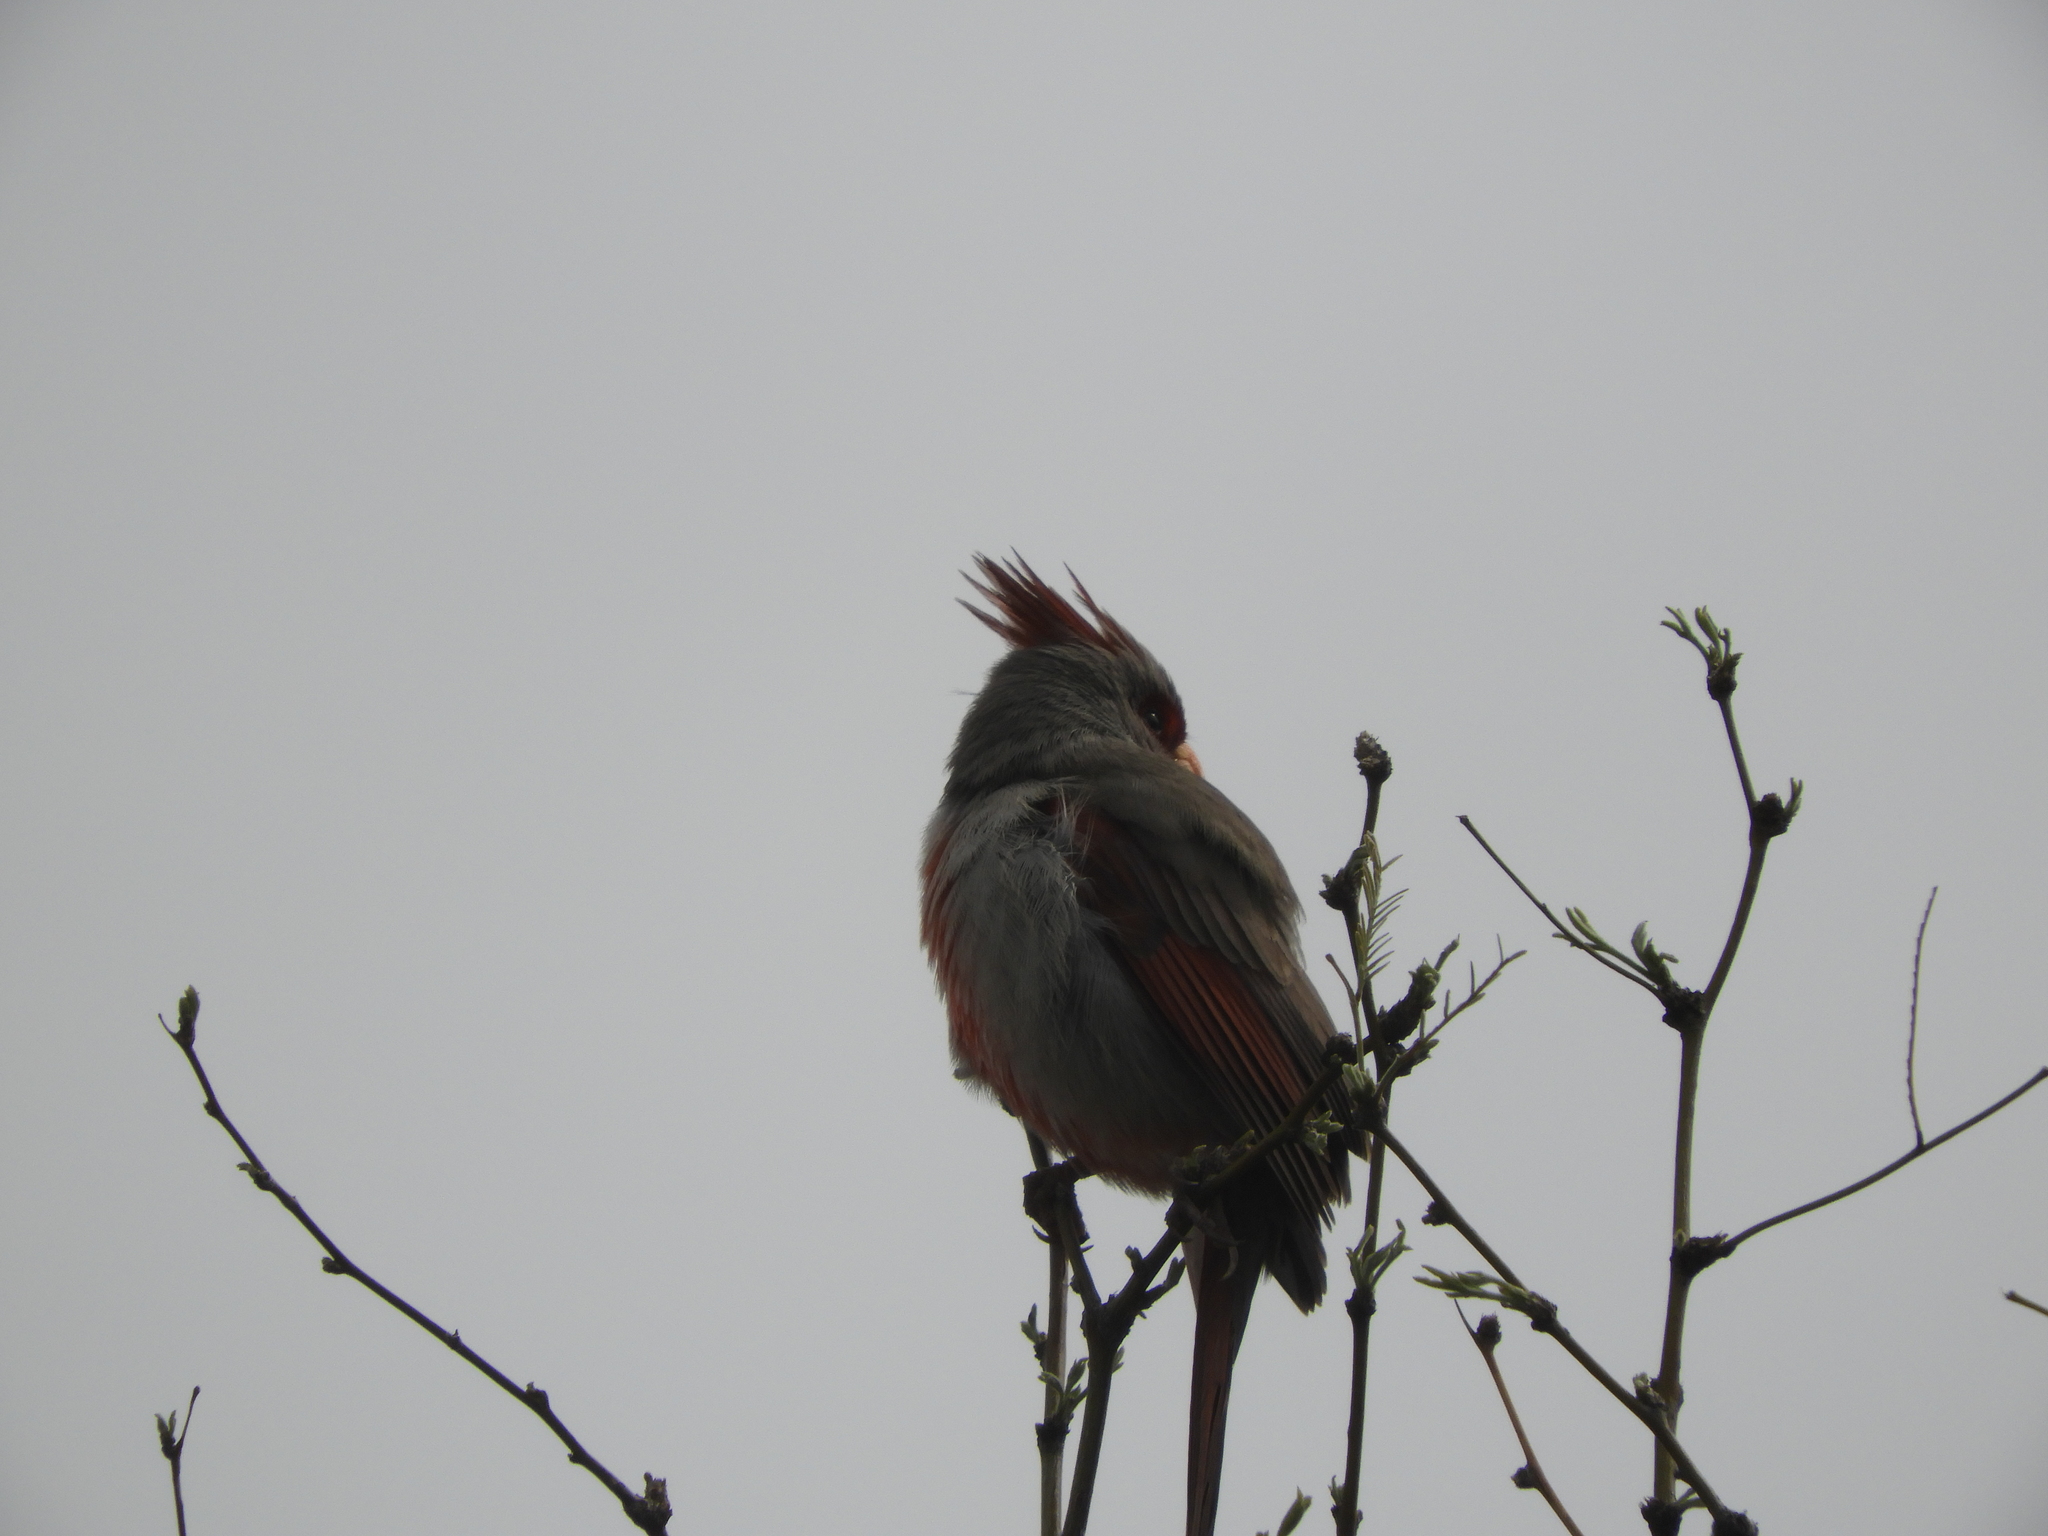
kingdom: Animalia
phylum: Chordata
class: Aves
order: Passeriformes
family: Cardinalidae
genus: Cardinalis
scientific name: Cardinalis sinuatus
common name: Pyrrhuloxia
